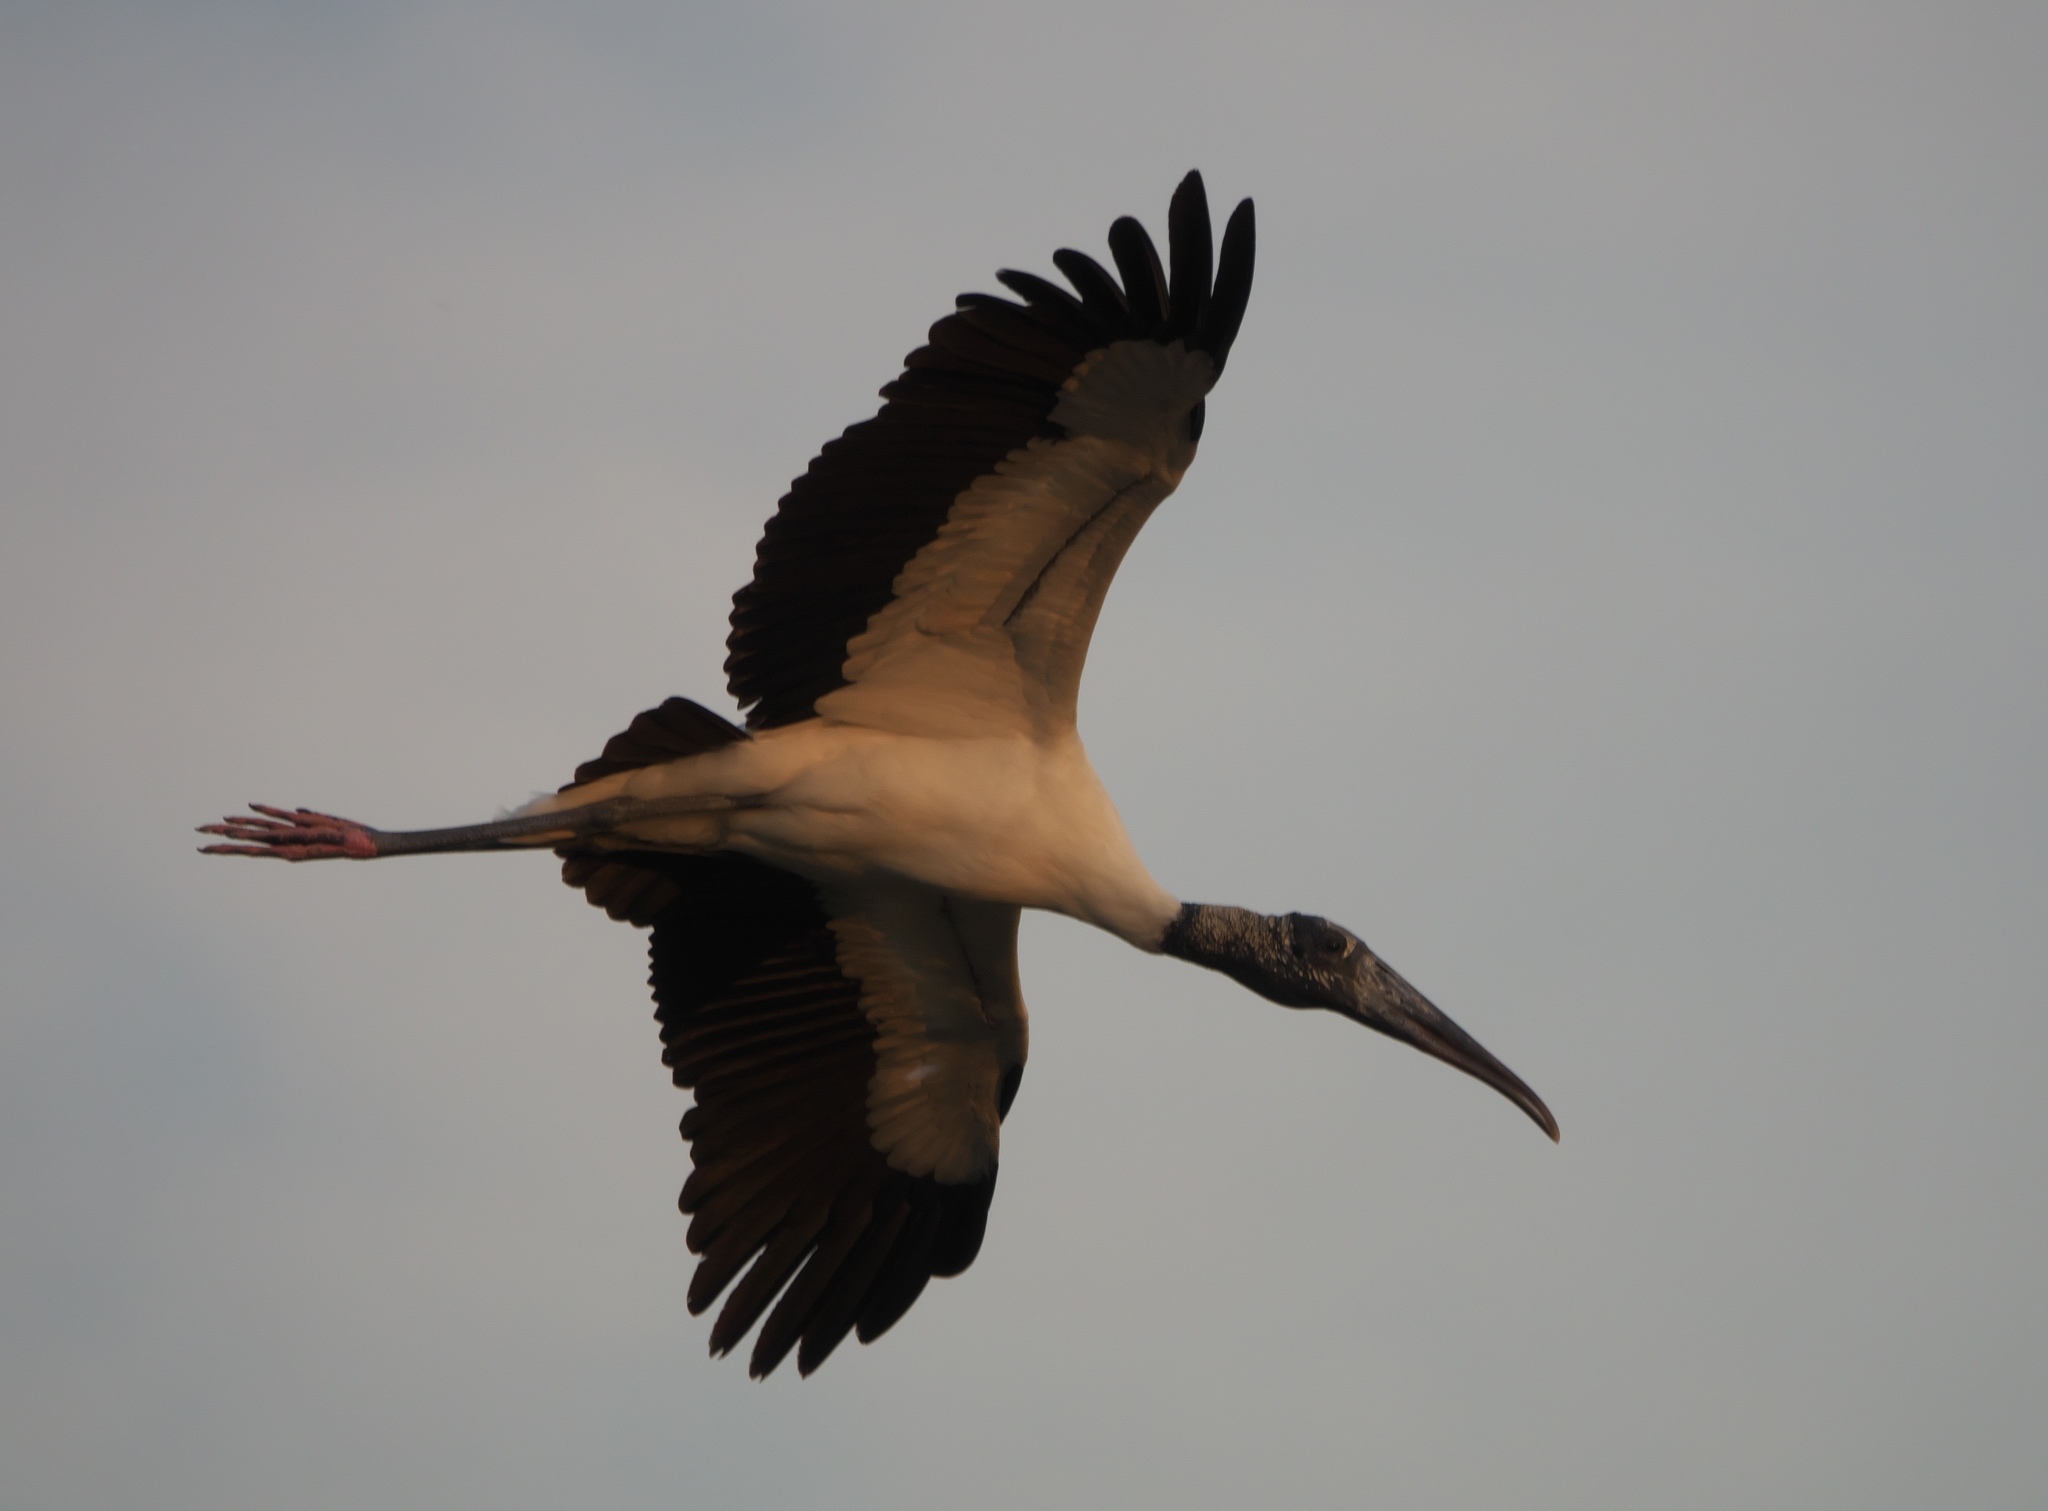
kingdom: Animalia
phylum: Chordata
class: Aves
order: Ciconiiformes
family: Ciconiidae
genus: Mycteria
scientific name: Mycteria americana
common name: Wood stork
